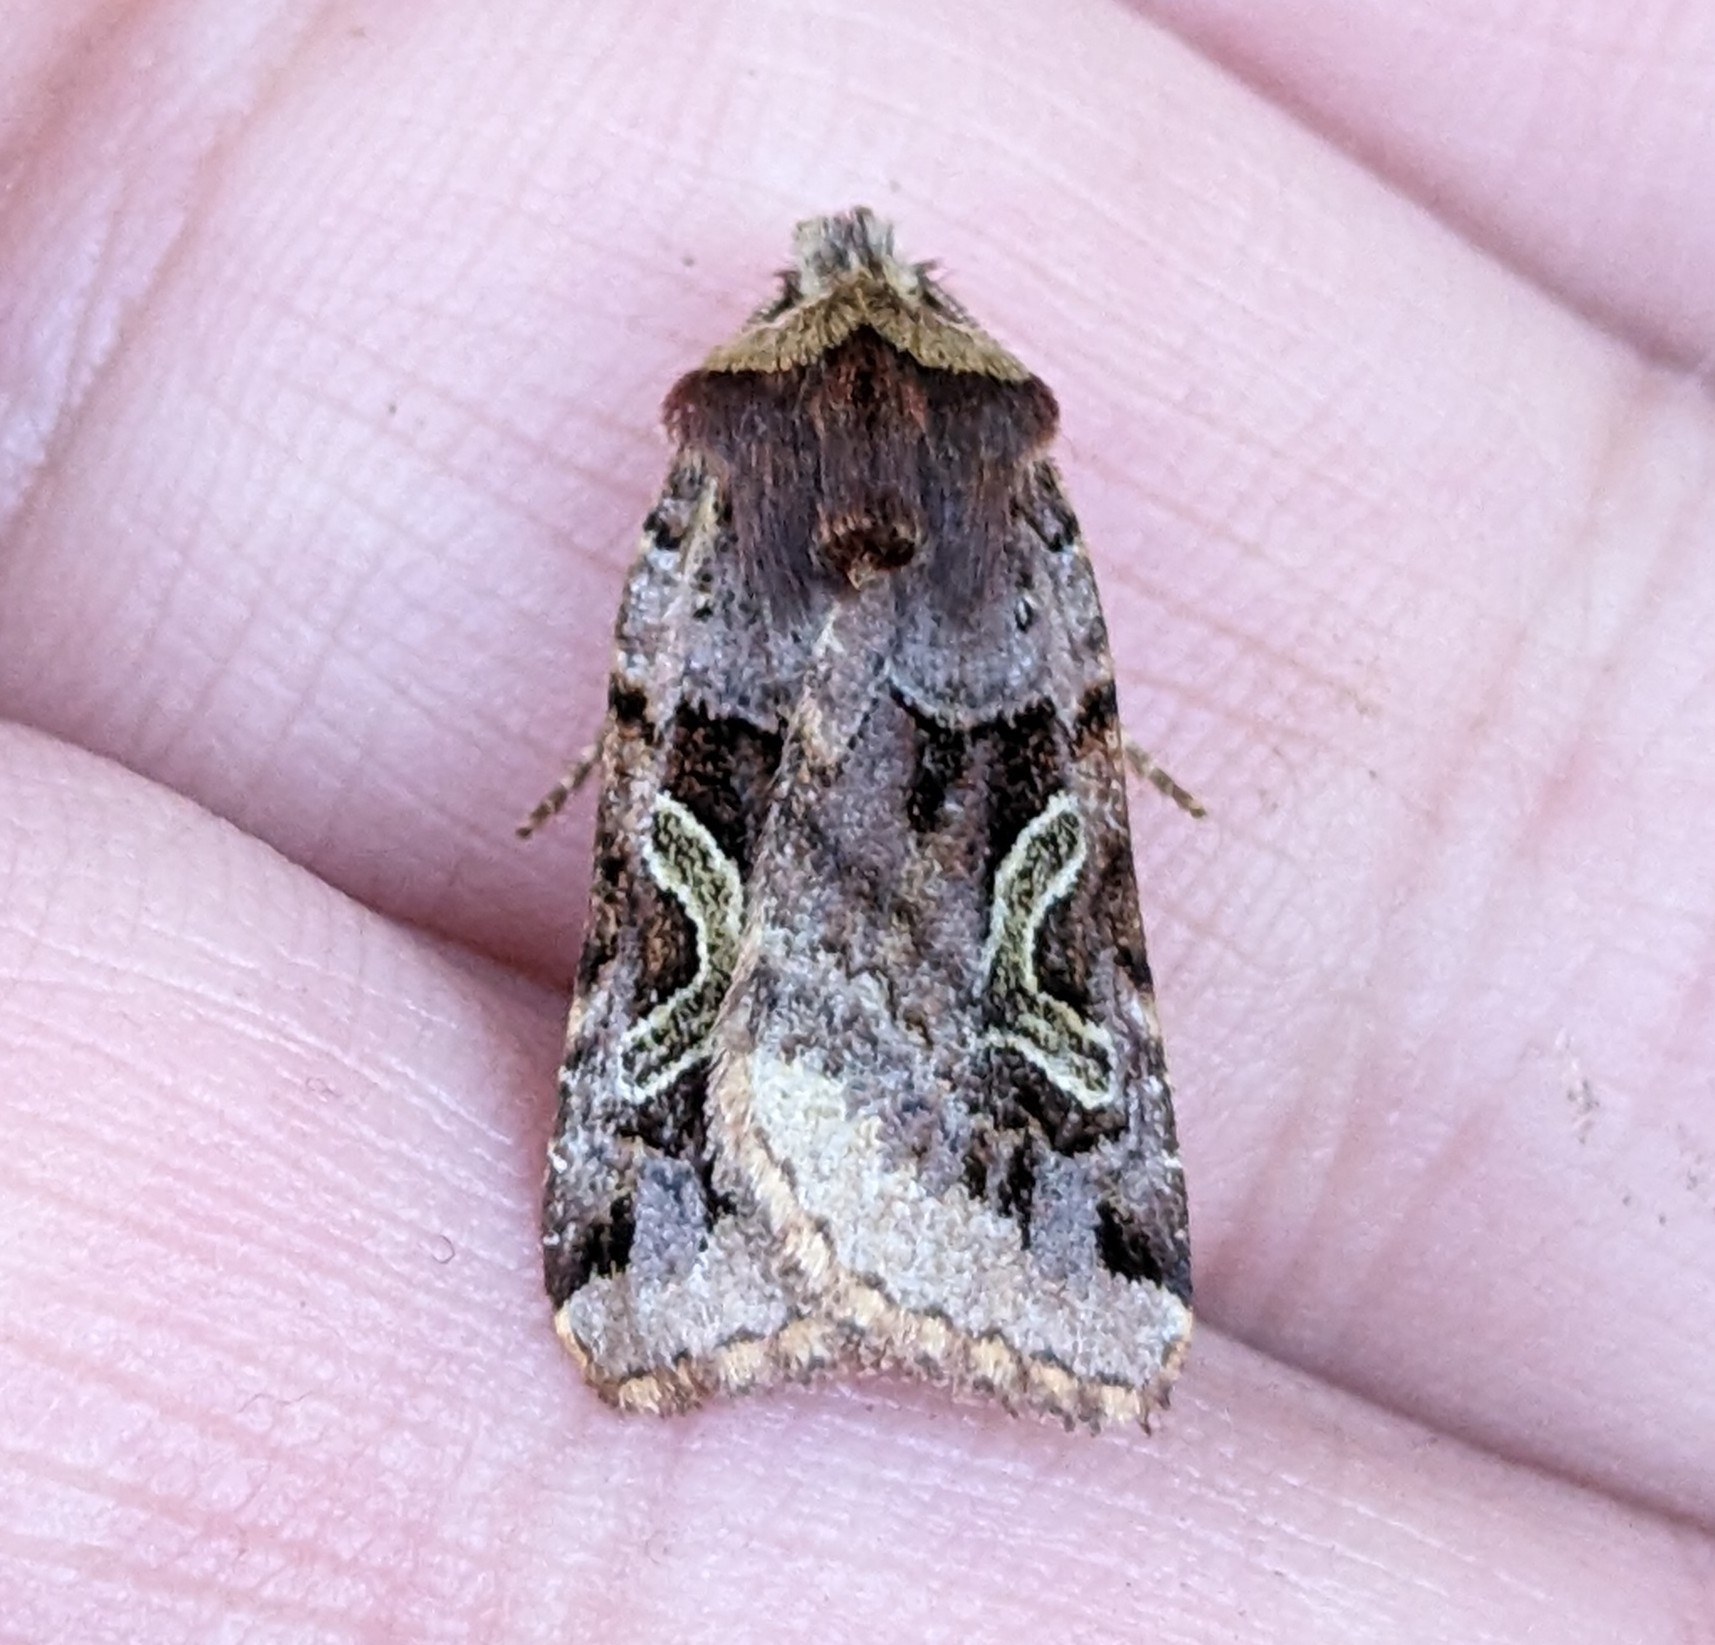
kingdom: Animalia
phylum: Arthropoda
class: Insecta
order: Lepidoptera
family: Noctuidae
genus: Cerastis
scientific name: Cerastis enigmatica
